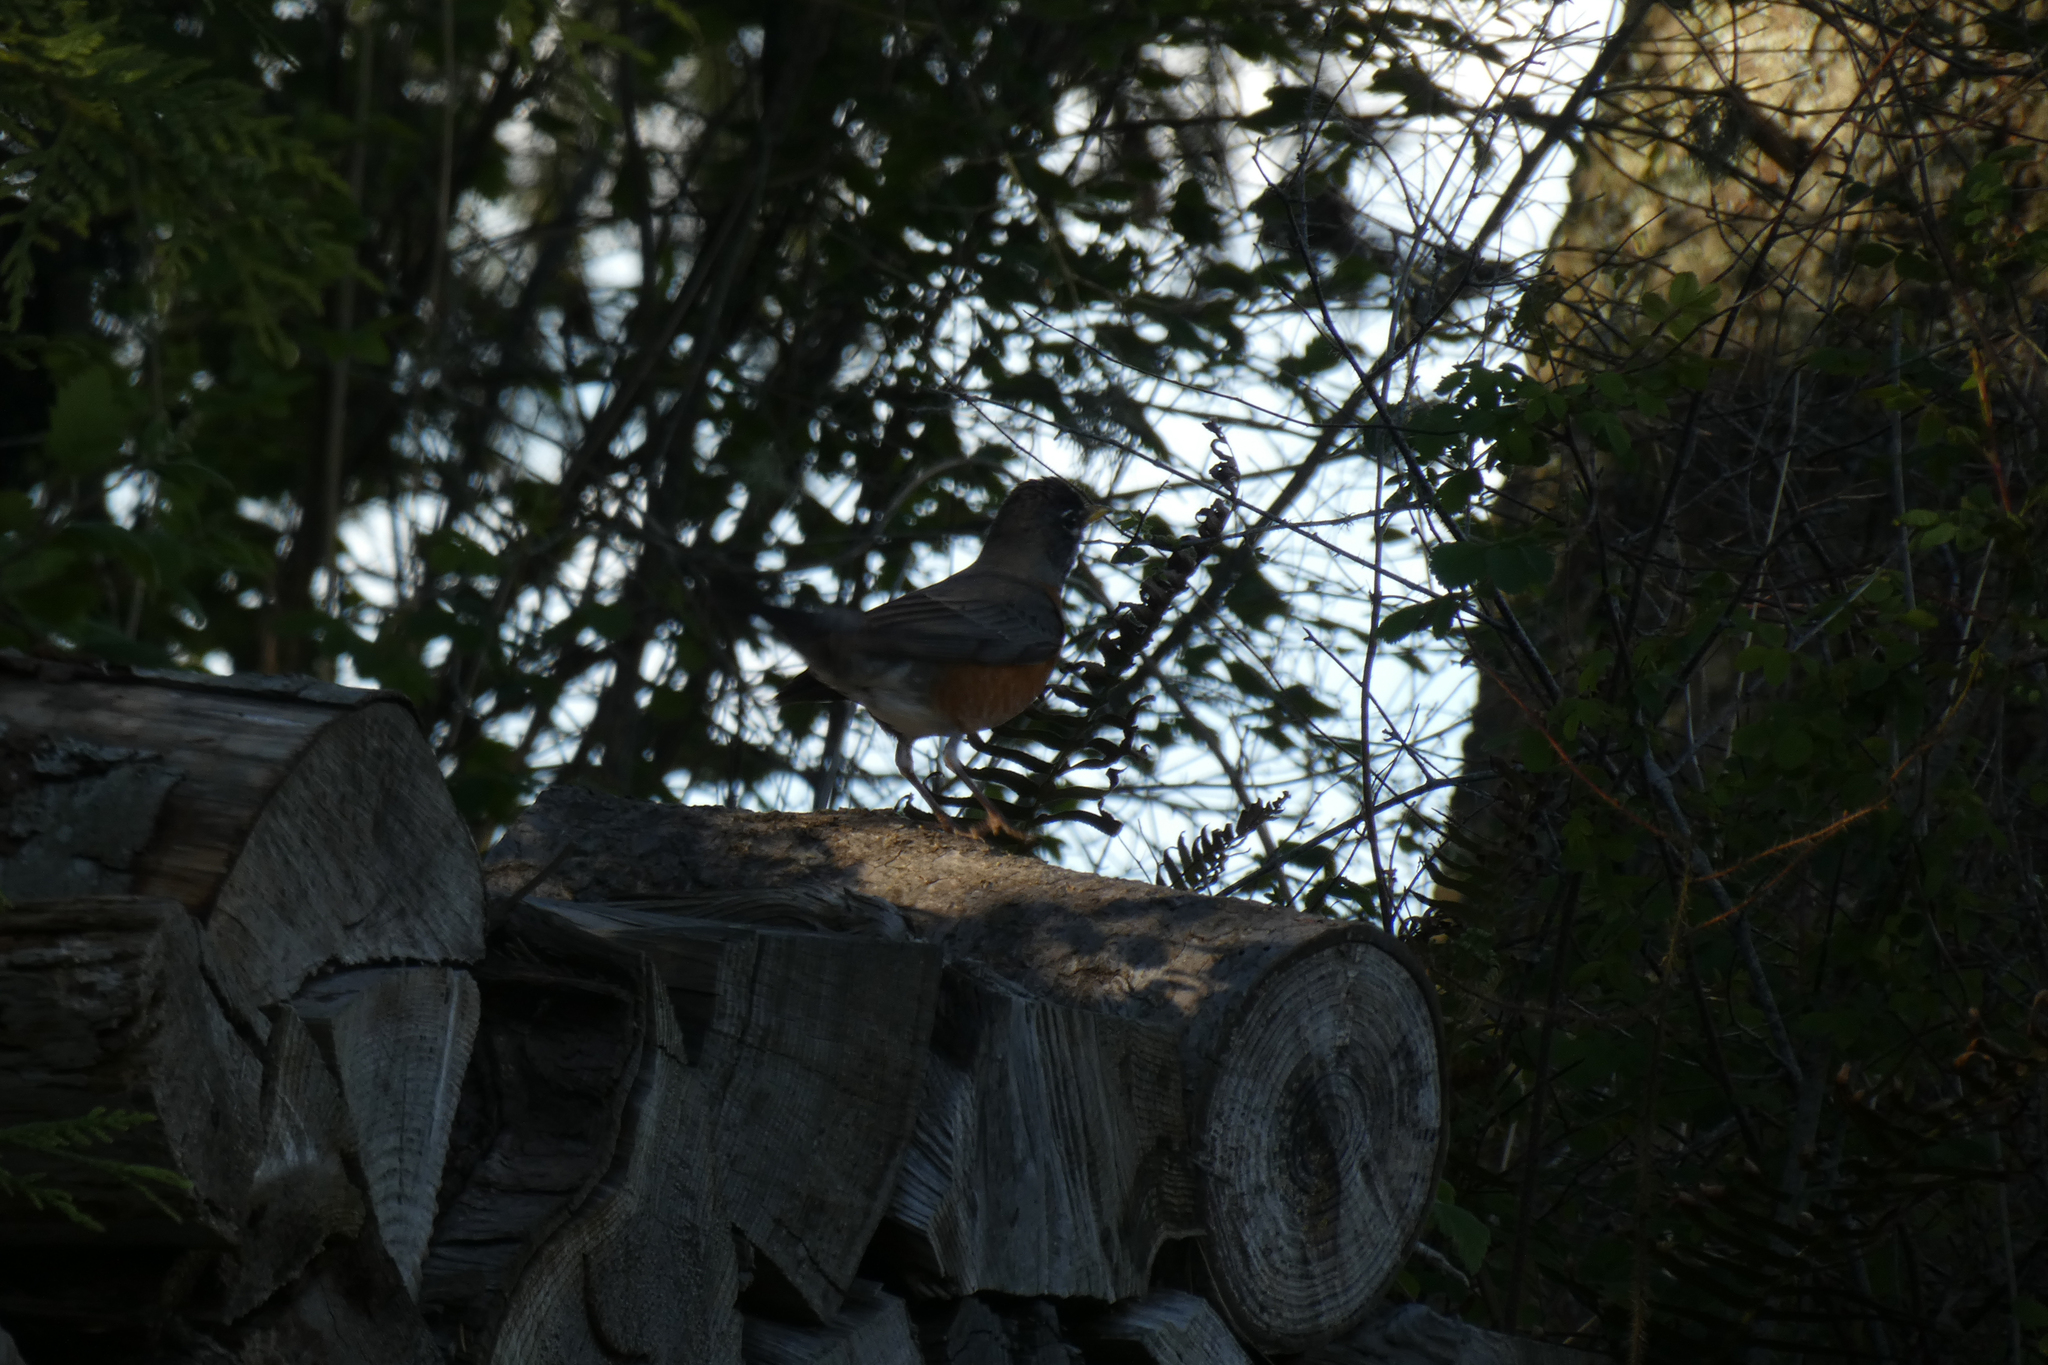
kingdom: Animalia
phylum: Chordata
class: Aves
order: Passeriformes
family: Turdidae
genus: Turdus
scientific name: Turdus migratorius
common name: American robin
